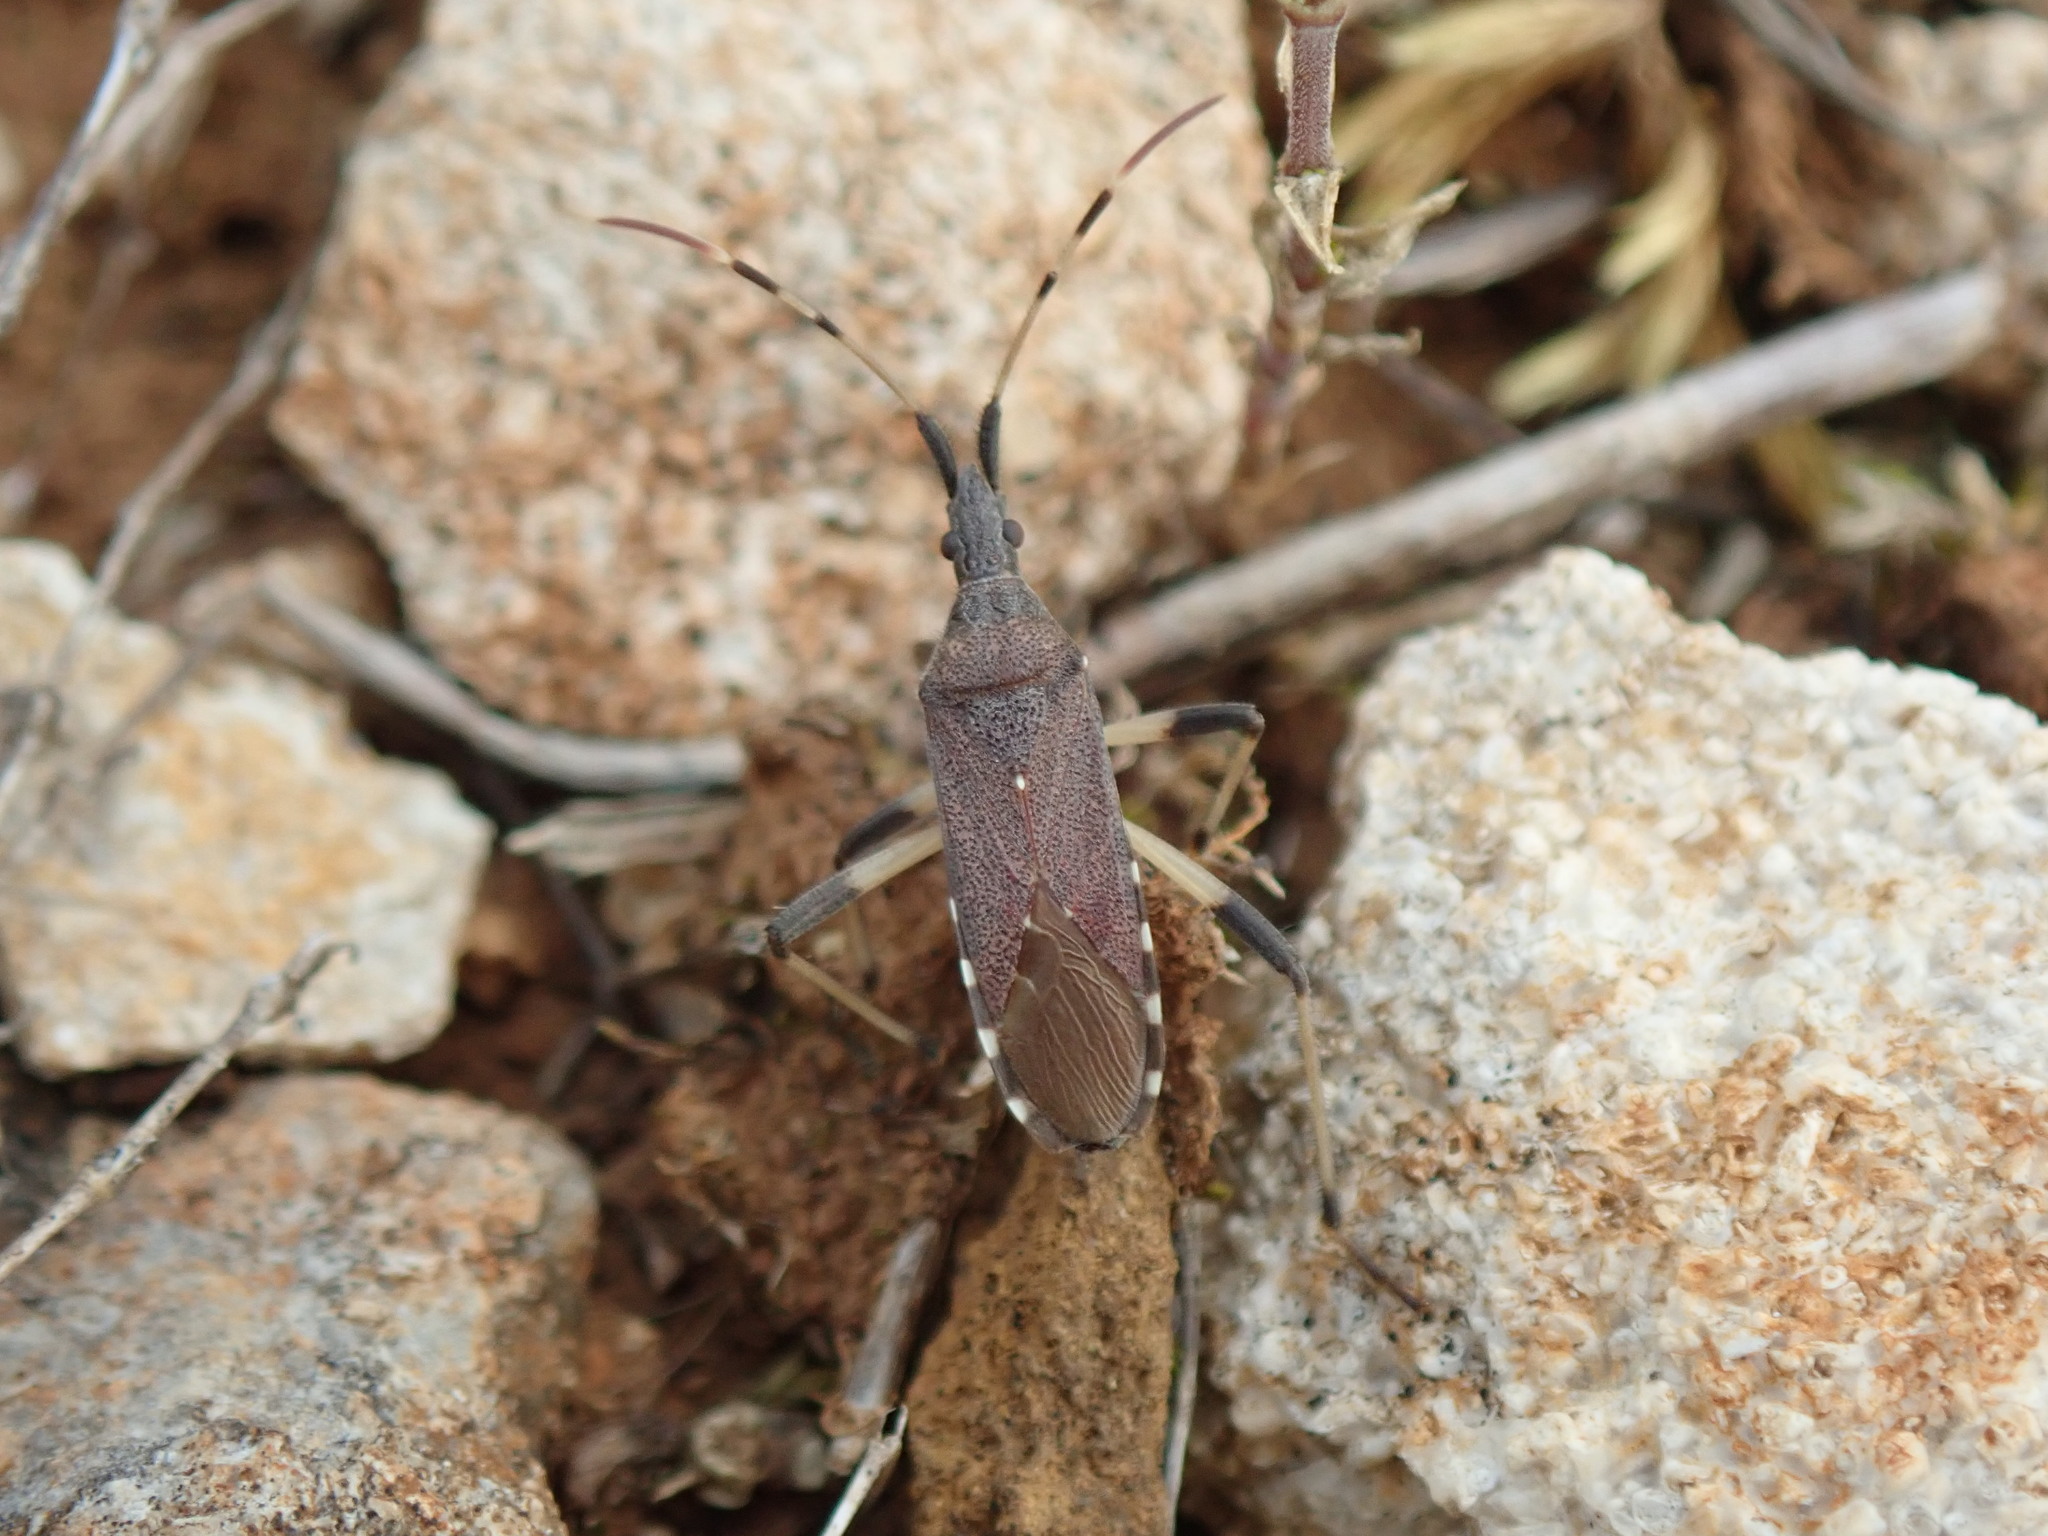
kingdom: Animalia
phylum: Arthropoda
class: Insecta
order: Hemiptera
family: Stenocephalidae
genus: Dicranocephalus
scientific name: Dicranocephalus albipes
